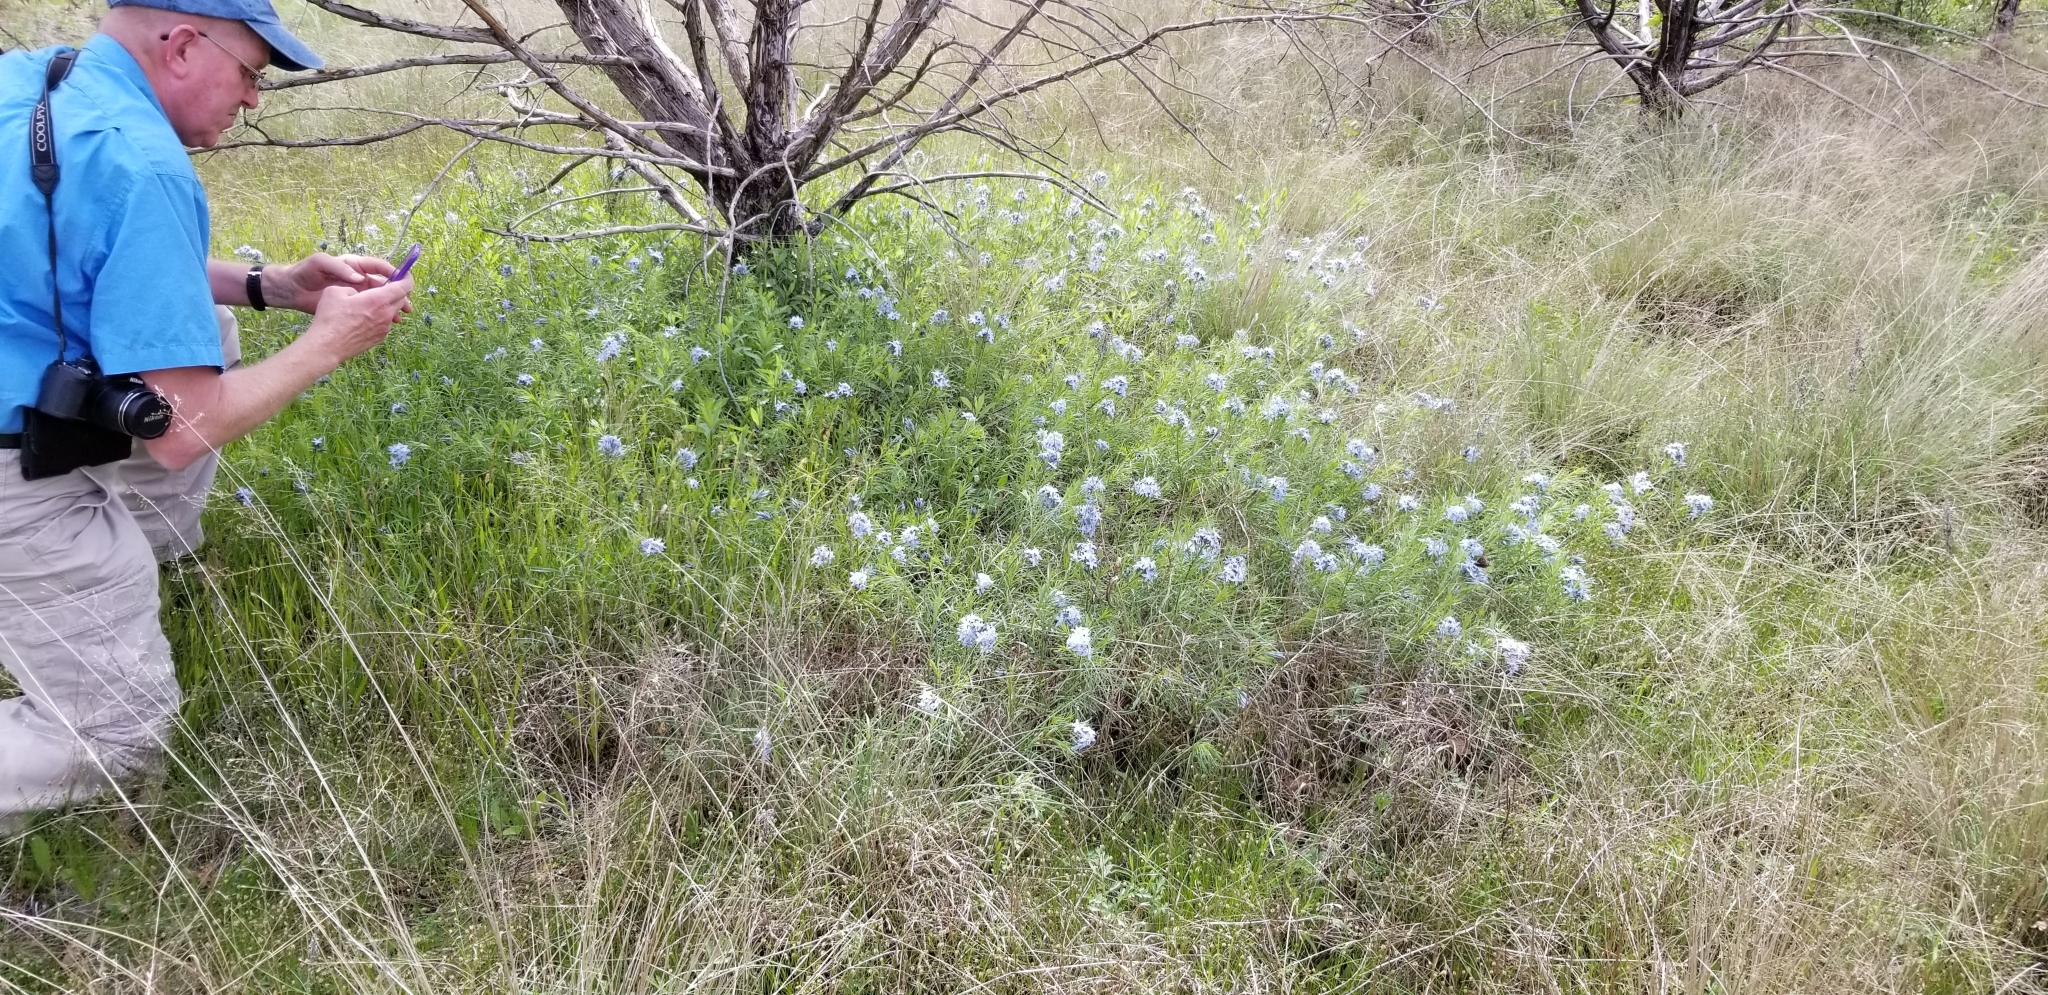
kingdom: Plantae
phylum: Tracheophyta
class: Magnoliopsida
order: Gentianales
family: Apocynaceae
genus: Amsonia
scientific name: Amsonia ciliata
